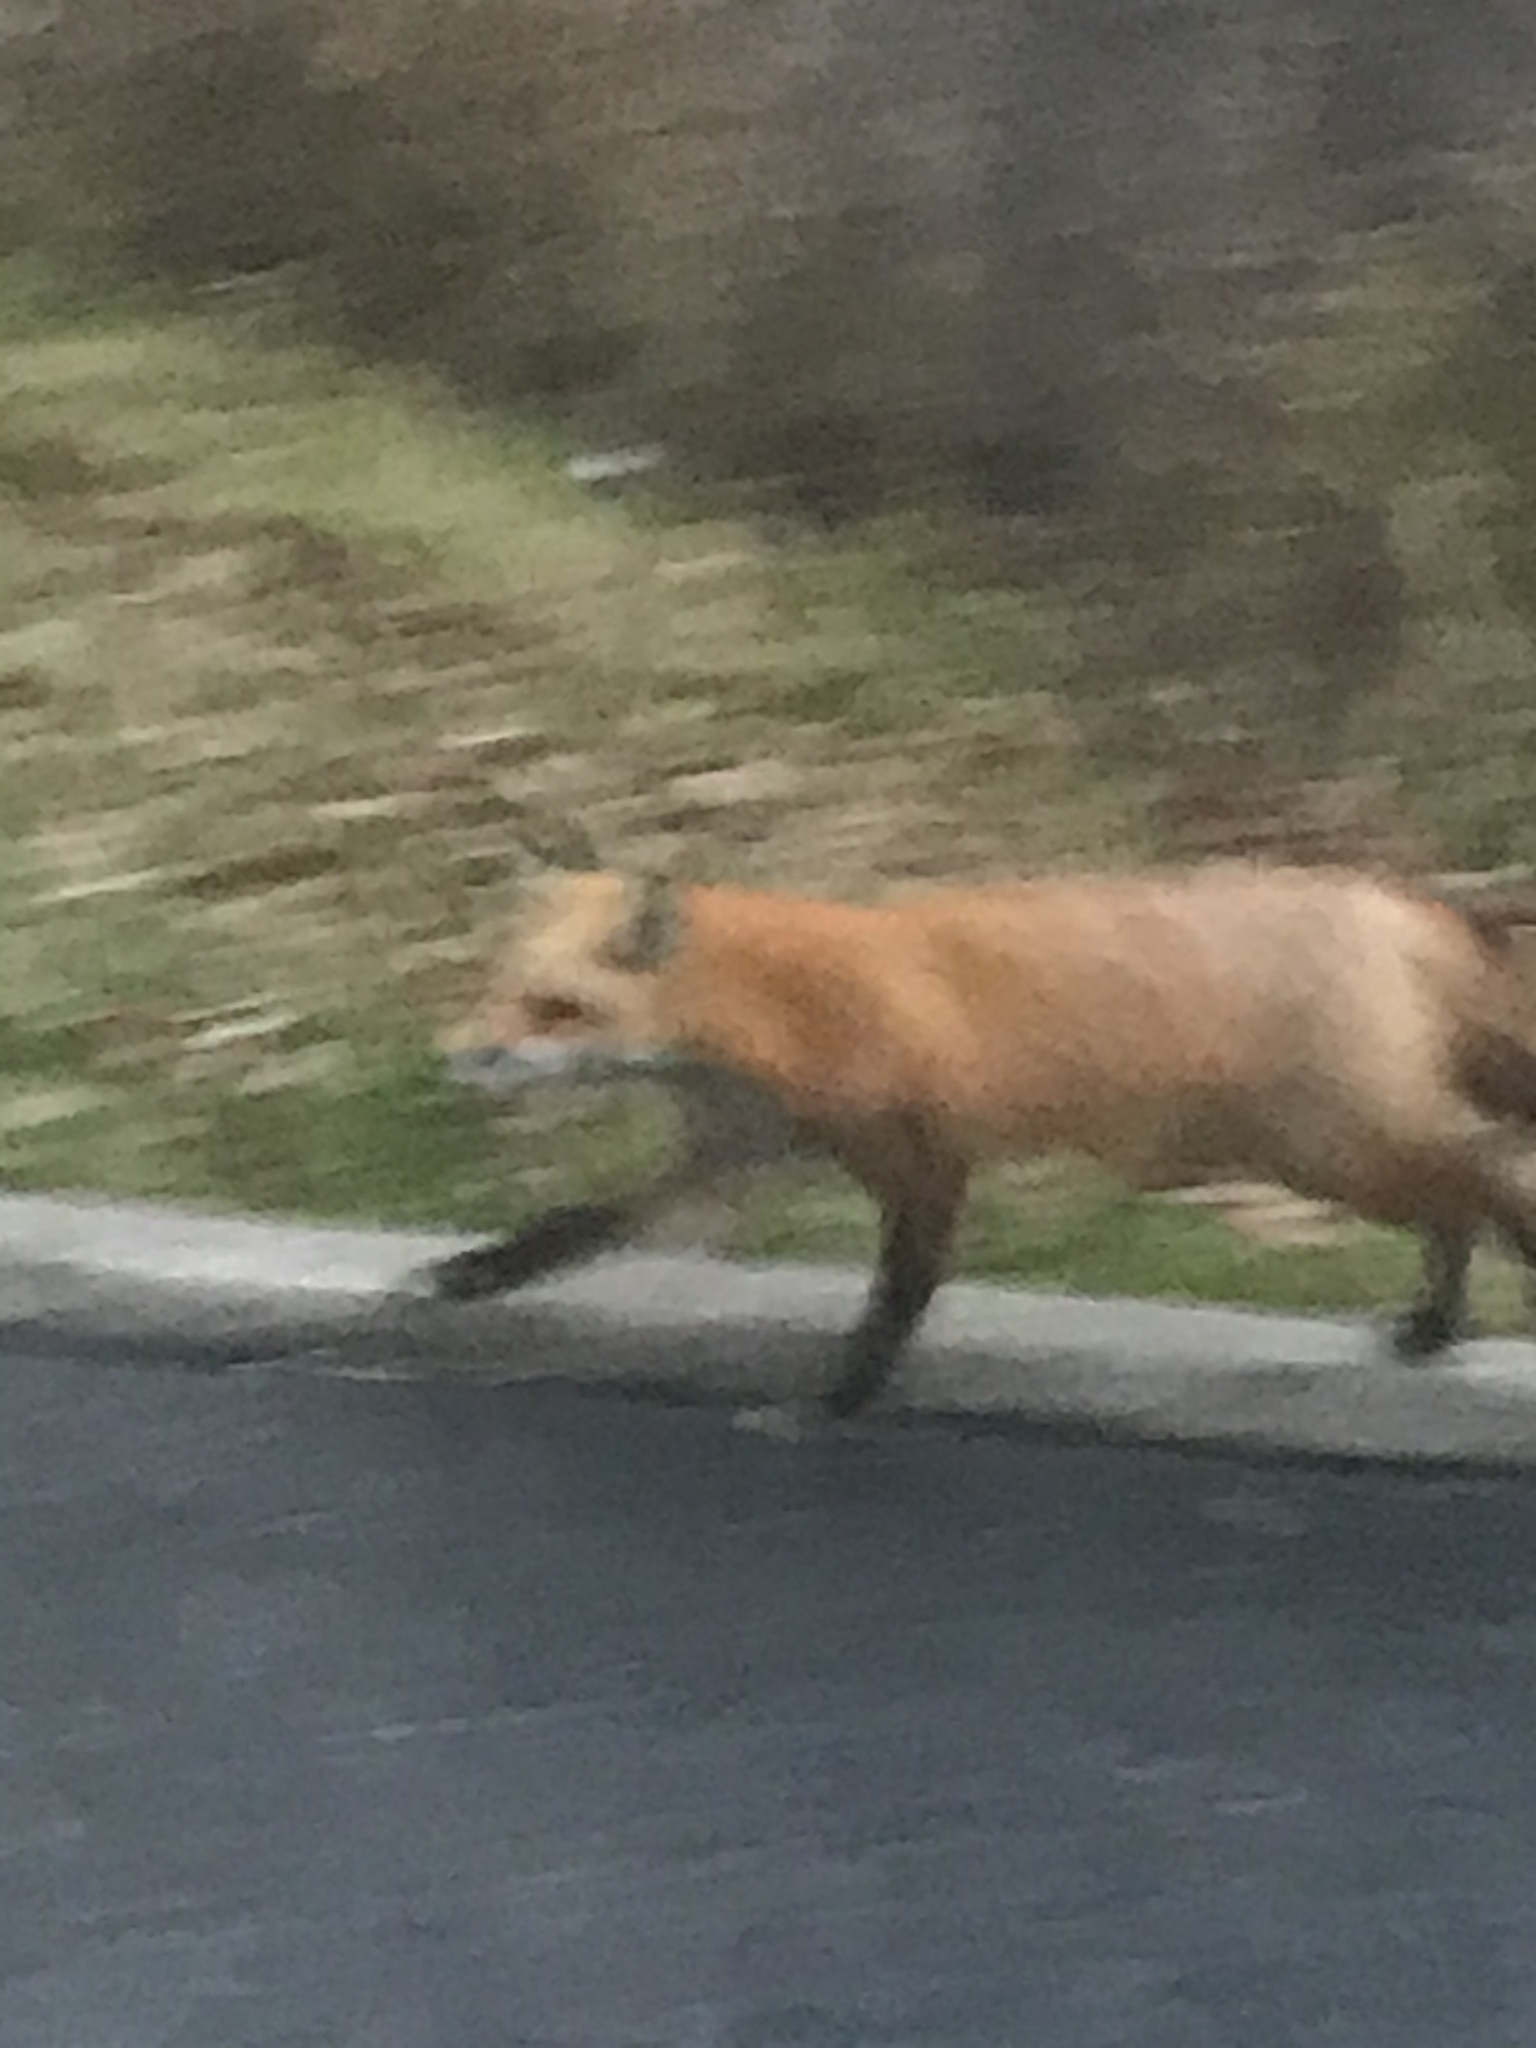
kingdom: Animalia
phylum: Chordata
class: Mammalia
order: Carnivora
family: Canidae
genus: Vulpes
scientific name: Vulpes vulpes
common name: Red fox
